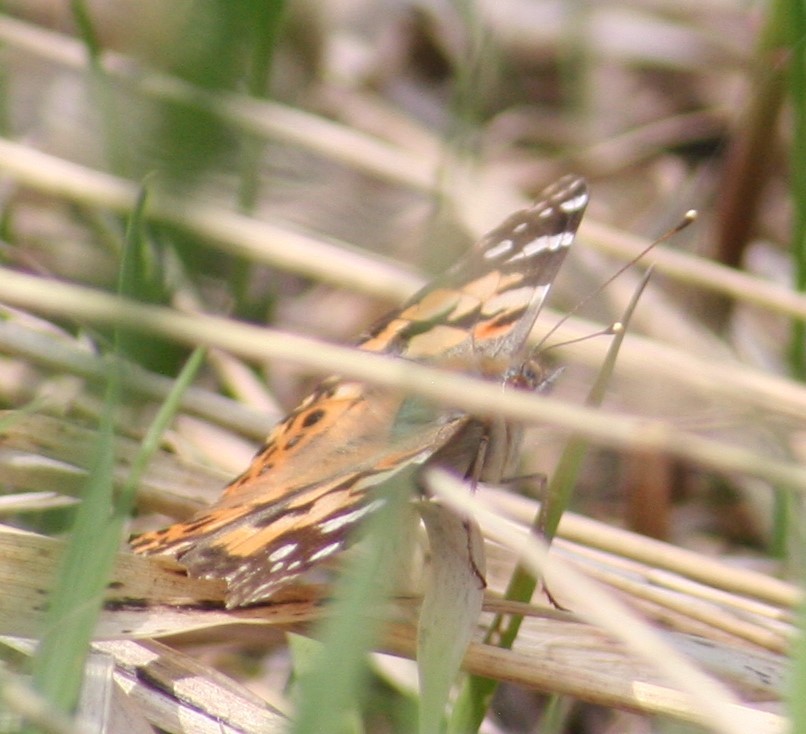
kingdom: Animalia
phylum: Arthropoda
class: Insecta
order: Lepidoptera
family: Nymphalidae
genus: Vanessa
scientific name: Vanessa cardui
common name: Painted lady
